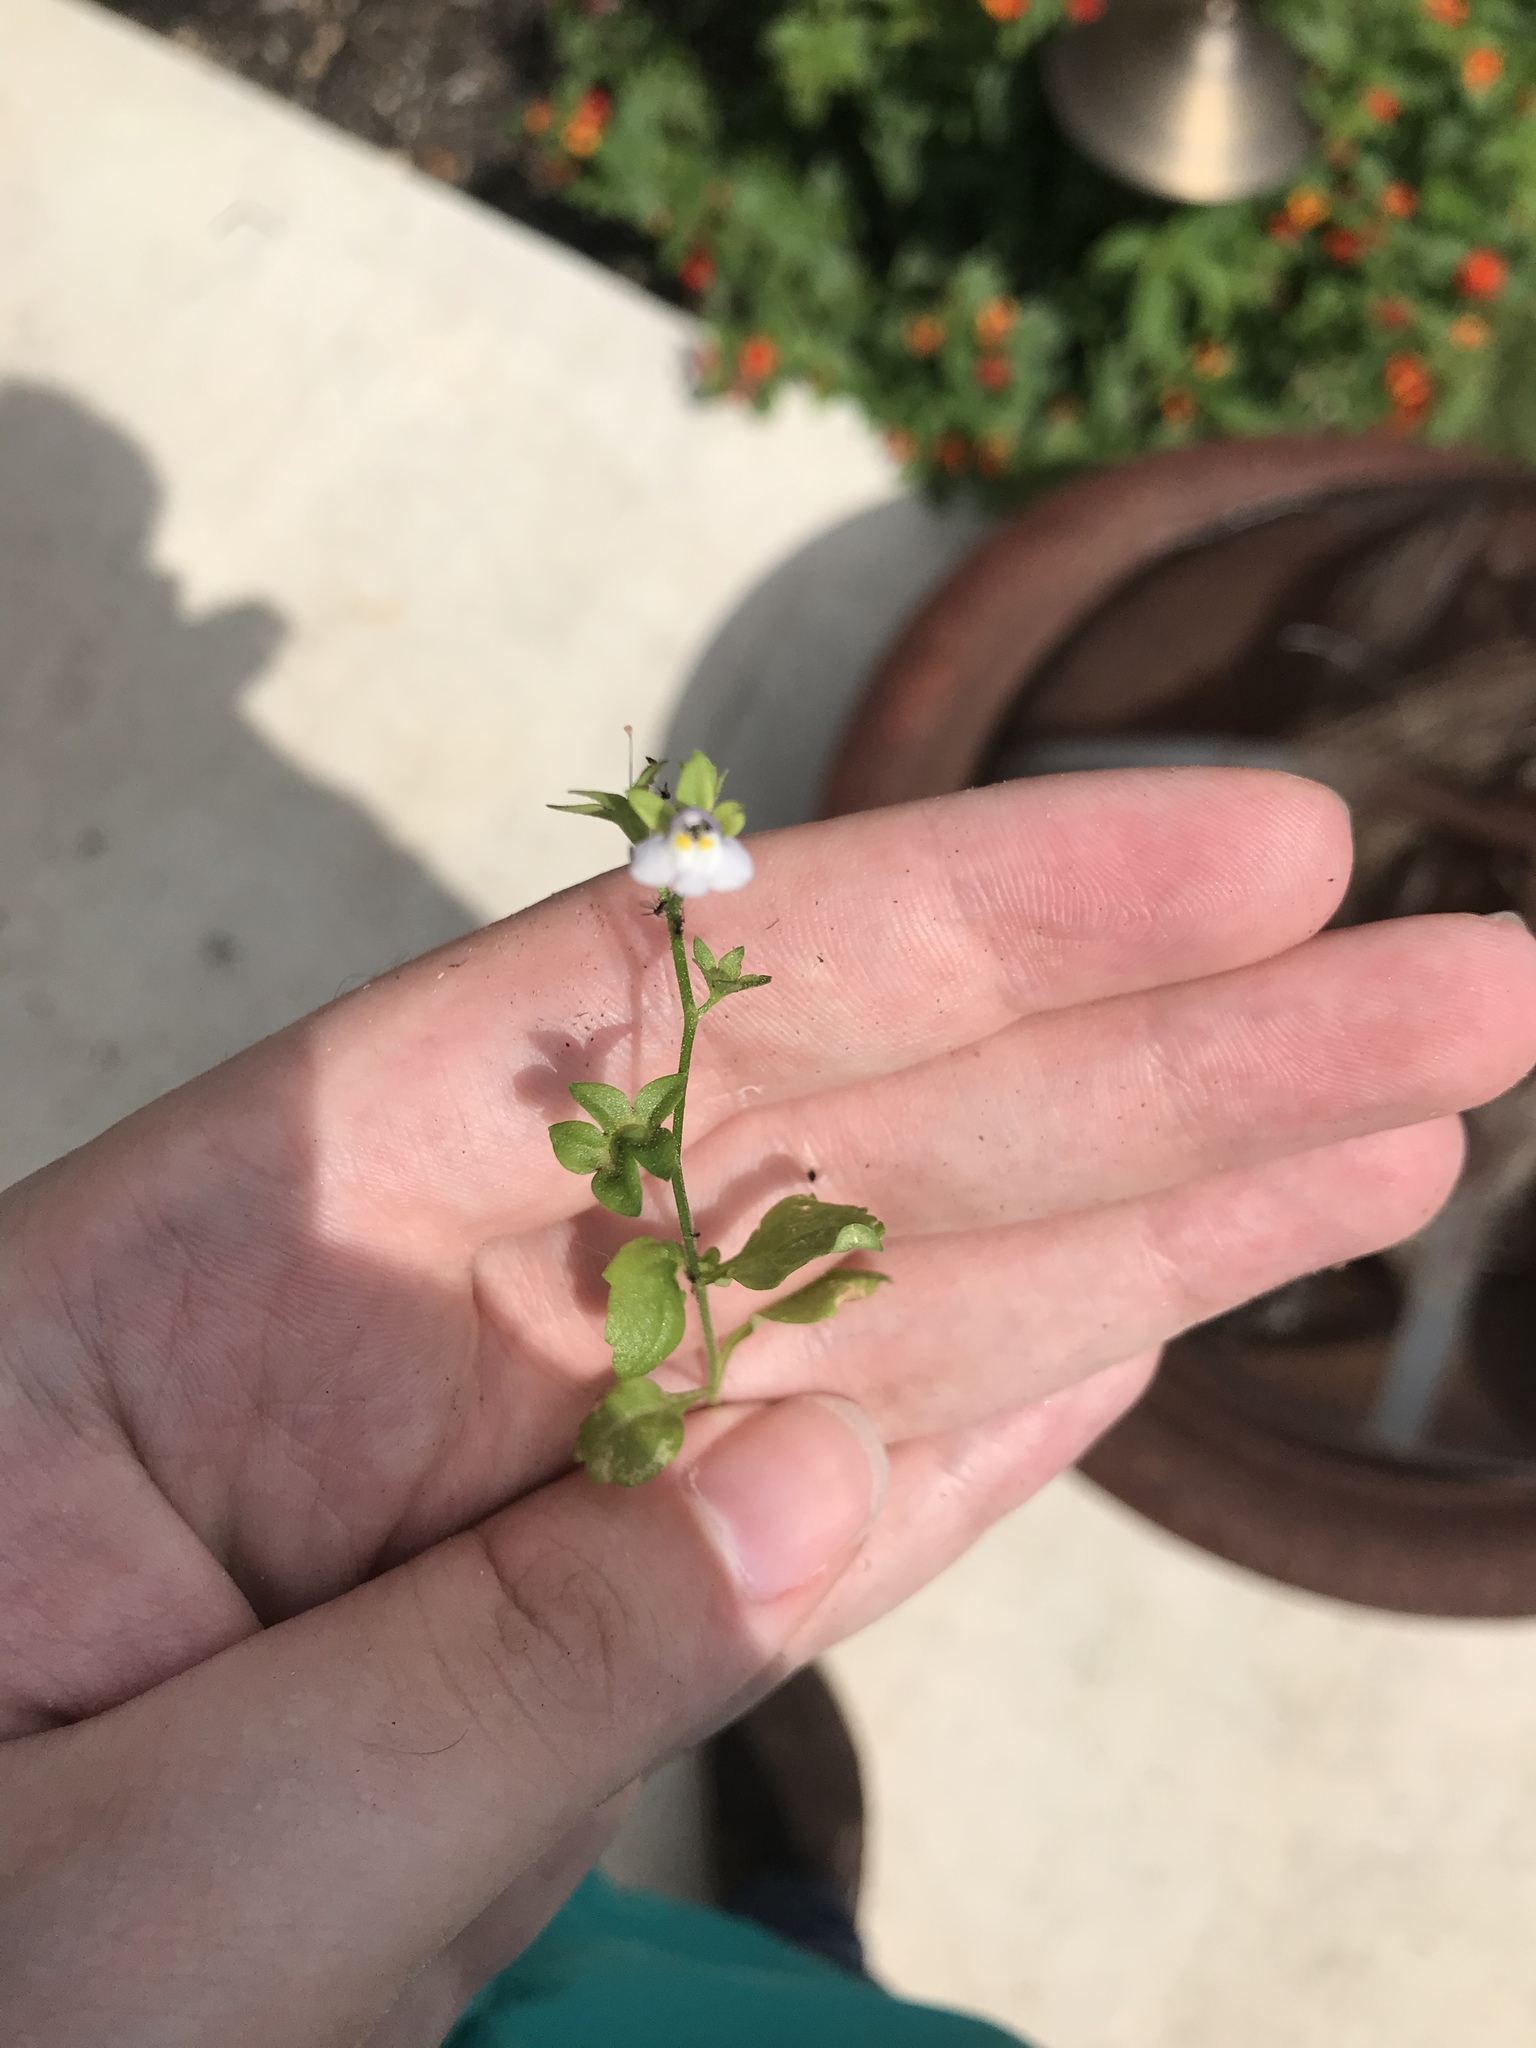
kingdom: Plantae
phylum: Tracheophyta
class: Magnoliopsida
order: Lamiales
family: Mazaceae
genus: Mazus
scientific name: Mazus pumilus
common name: Japanese mazus
